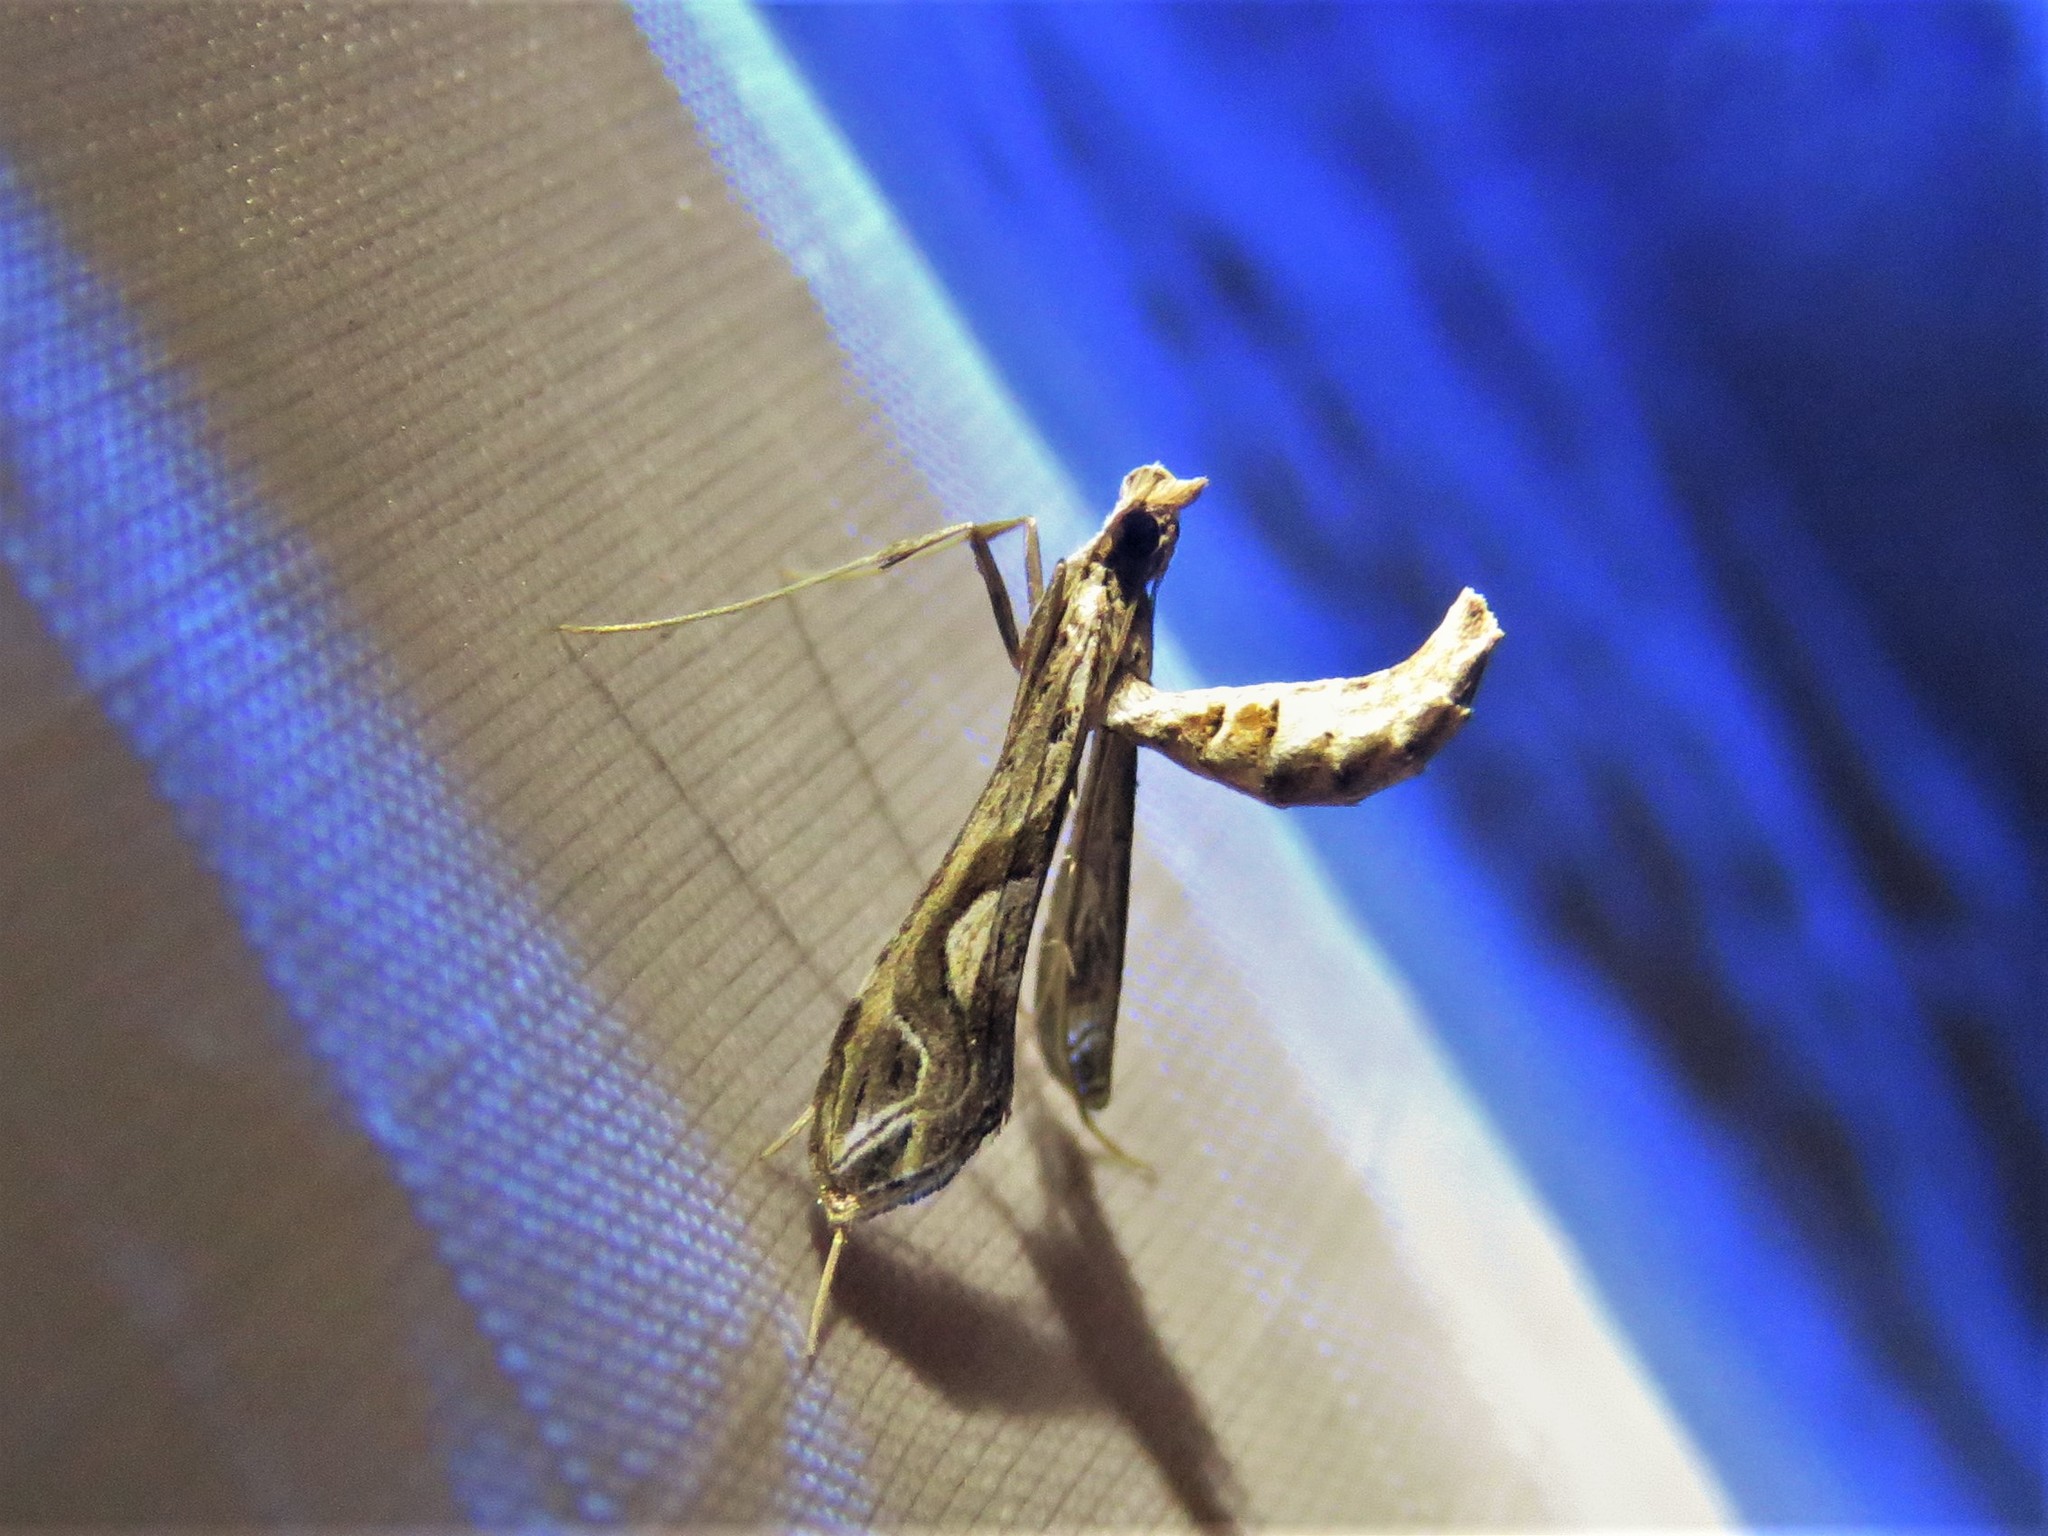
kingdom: Animalia
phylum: Arthropoda
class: Insecta
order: Lepidoptera
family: Crambidae
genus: Lineodes
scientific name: Lineodes integra
